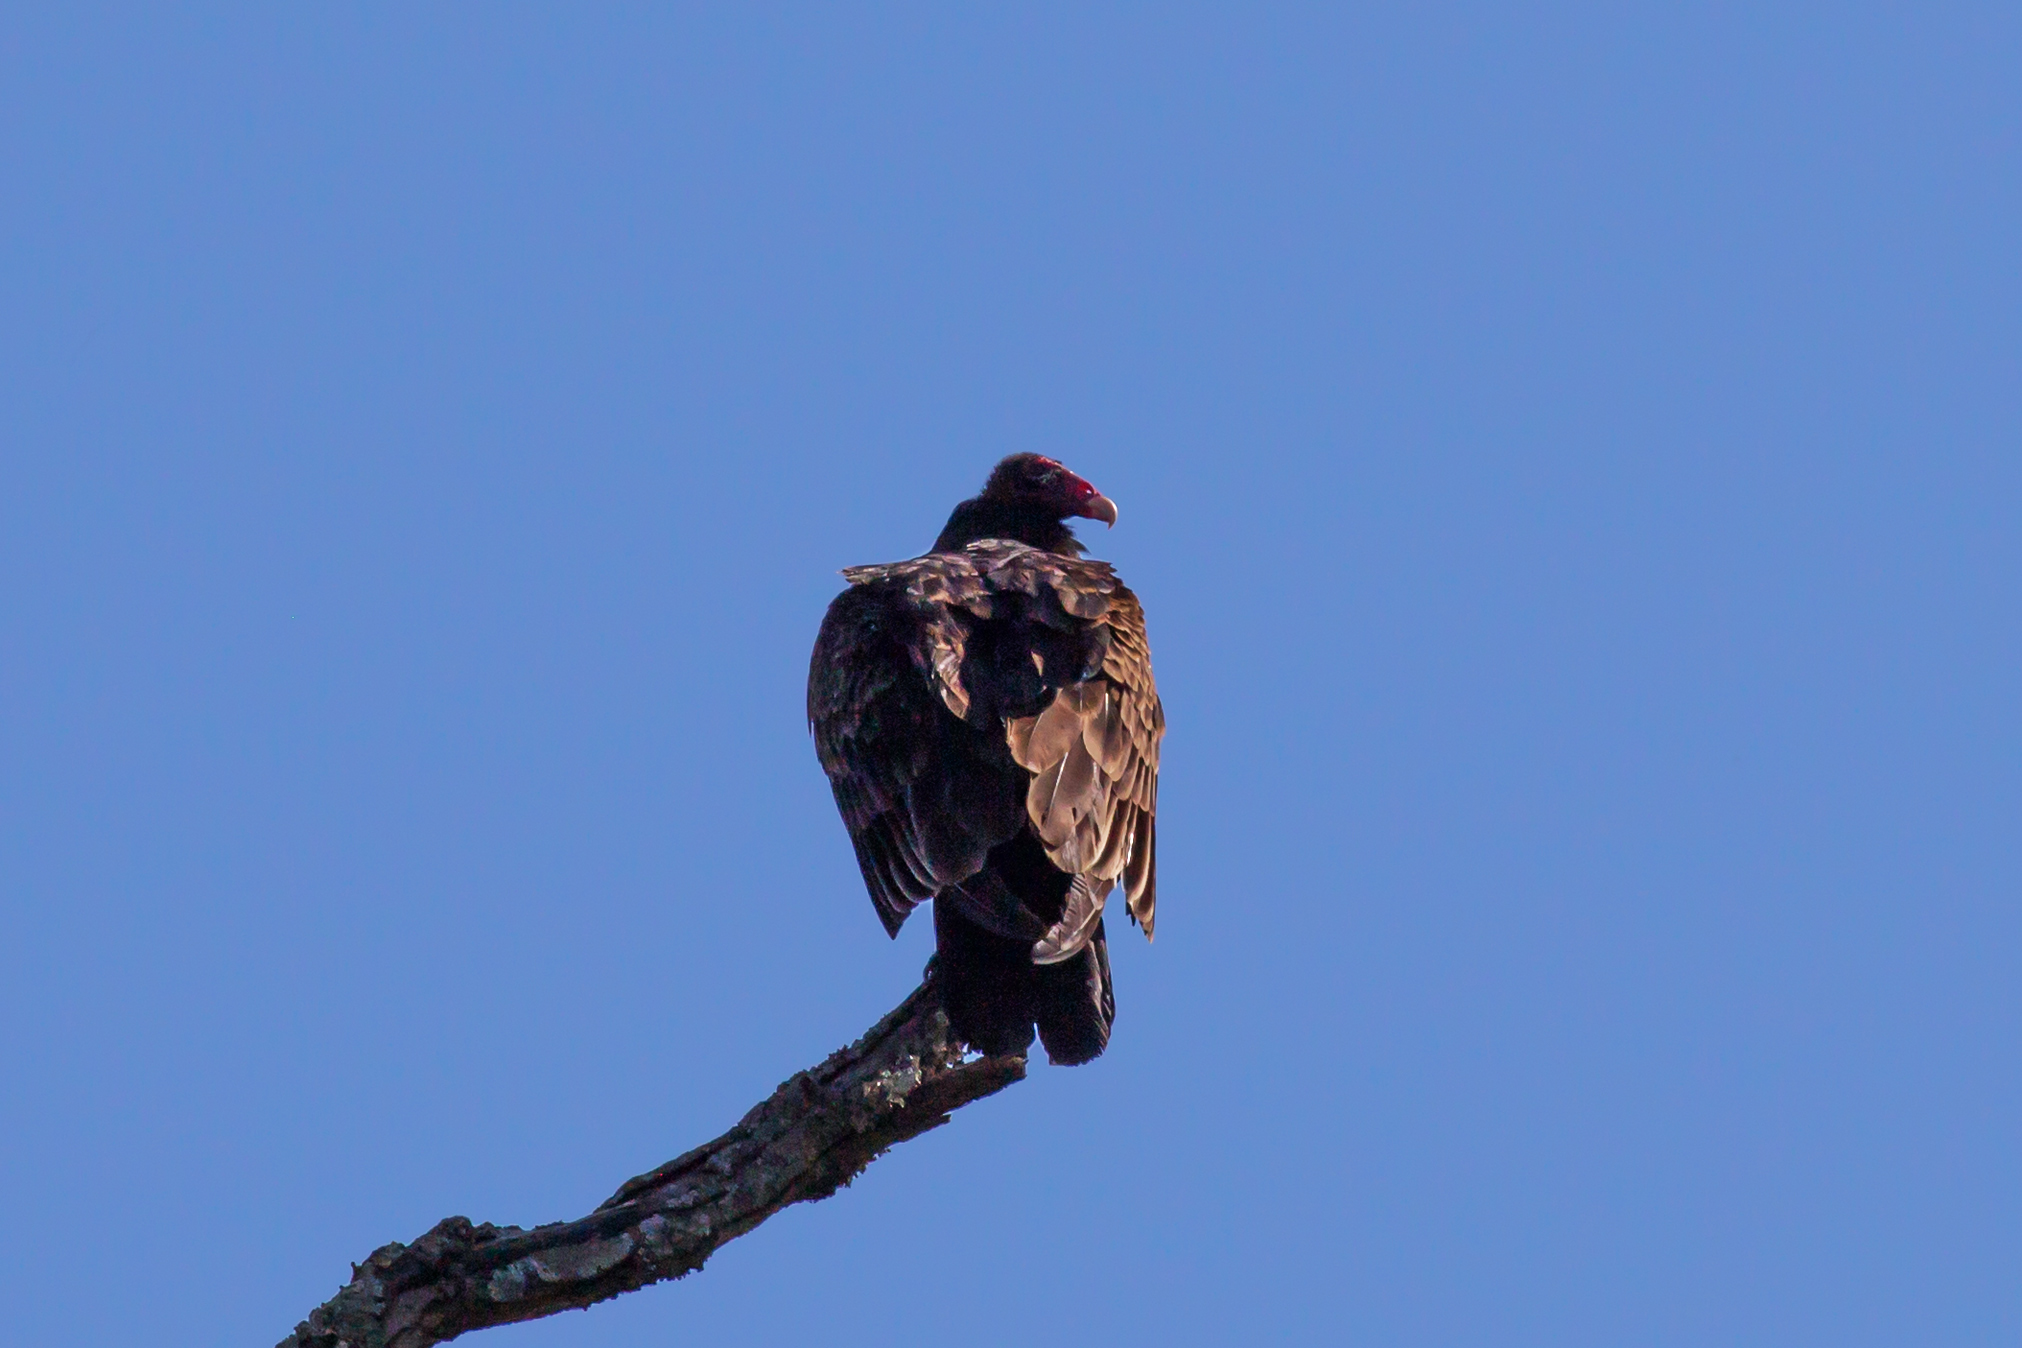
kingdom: Animalia
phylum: Chordata
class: Aves
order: Accipitriformes
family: Cathartidae
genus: Cathartes
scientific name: Cathartes aura
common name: Turkey vulture
